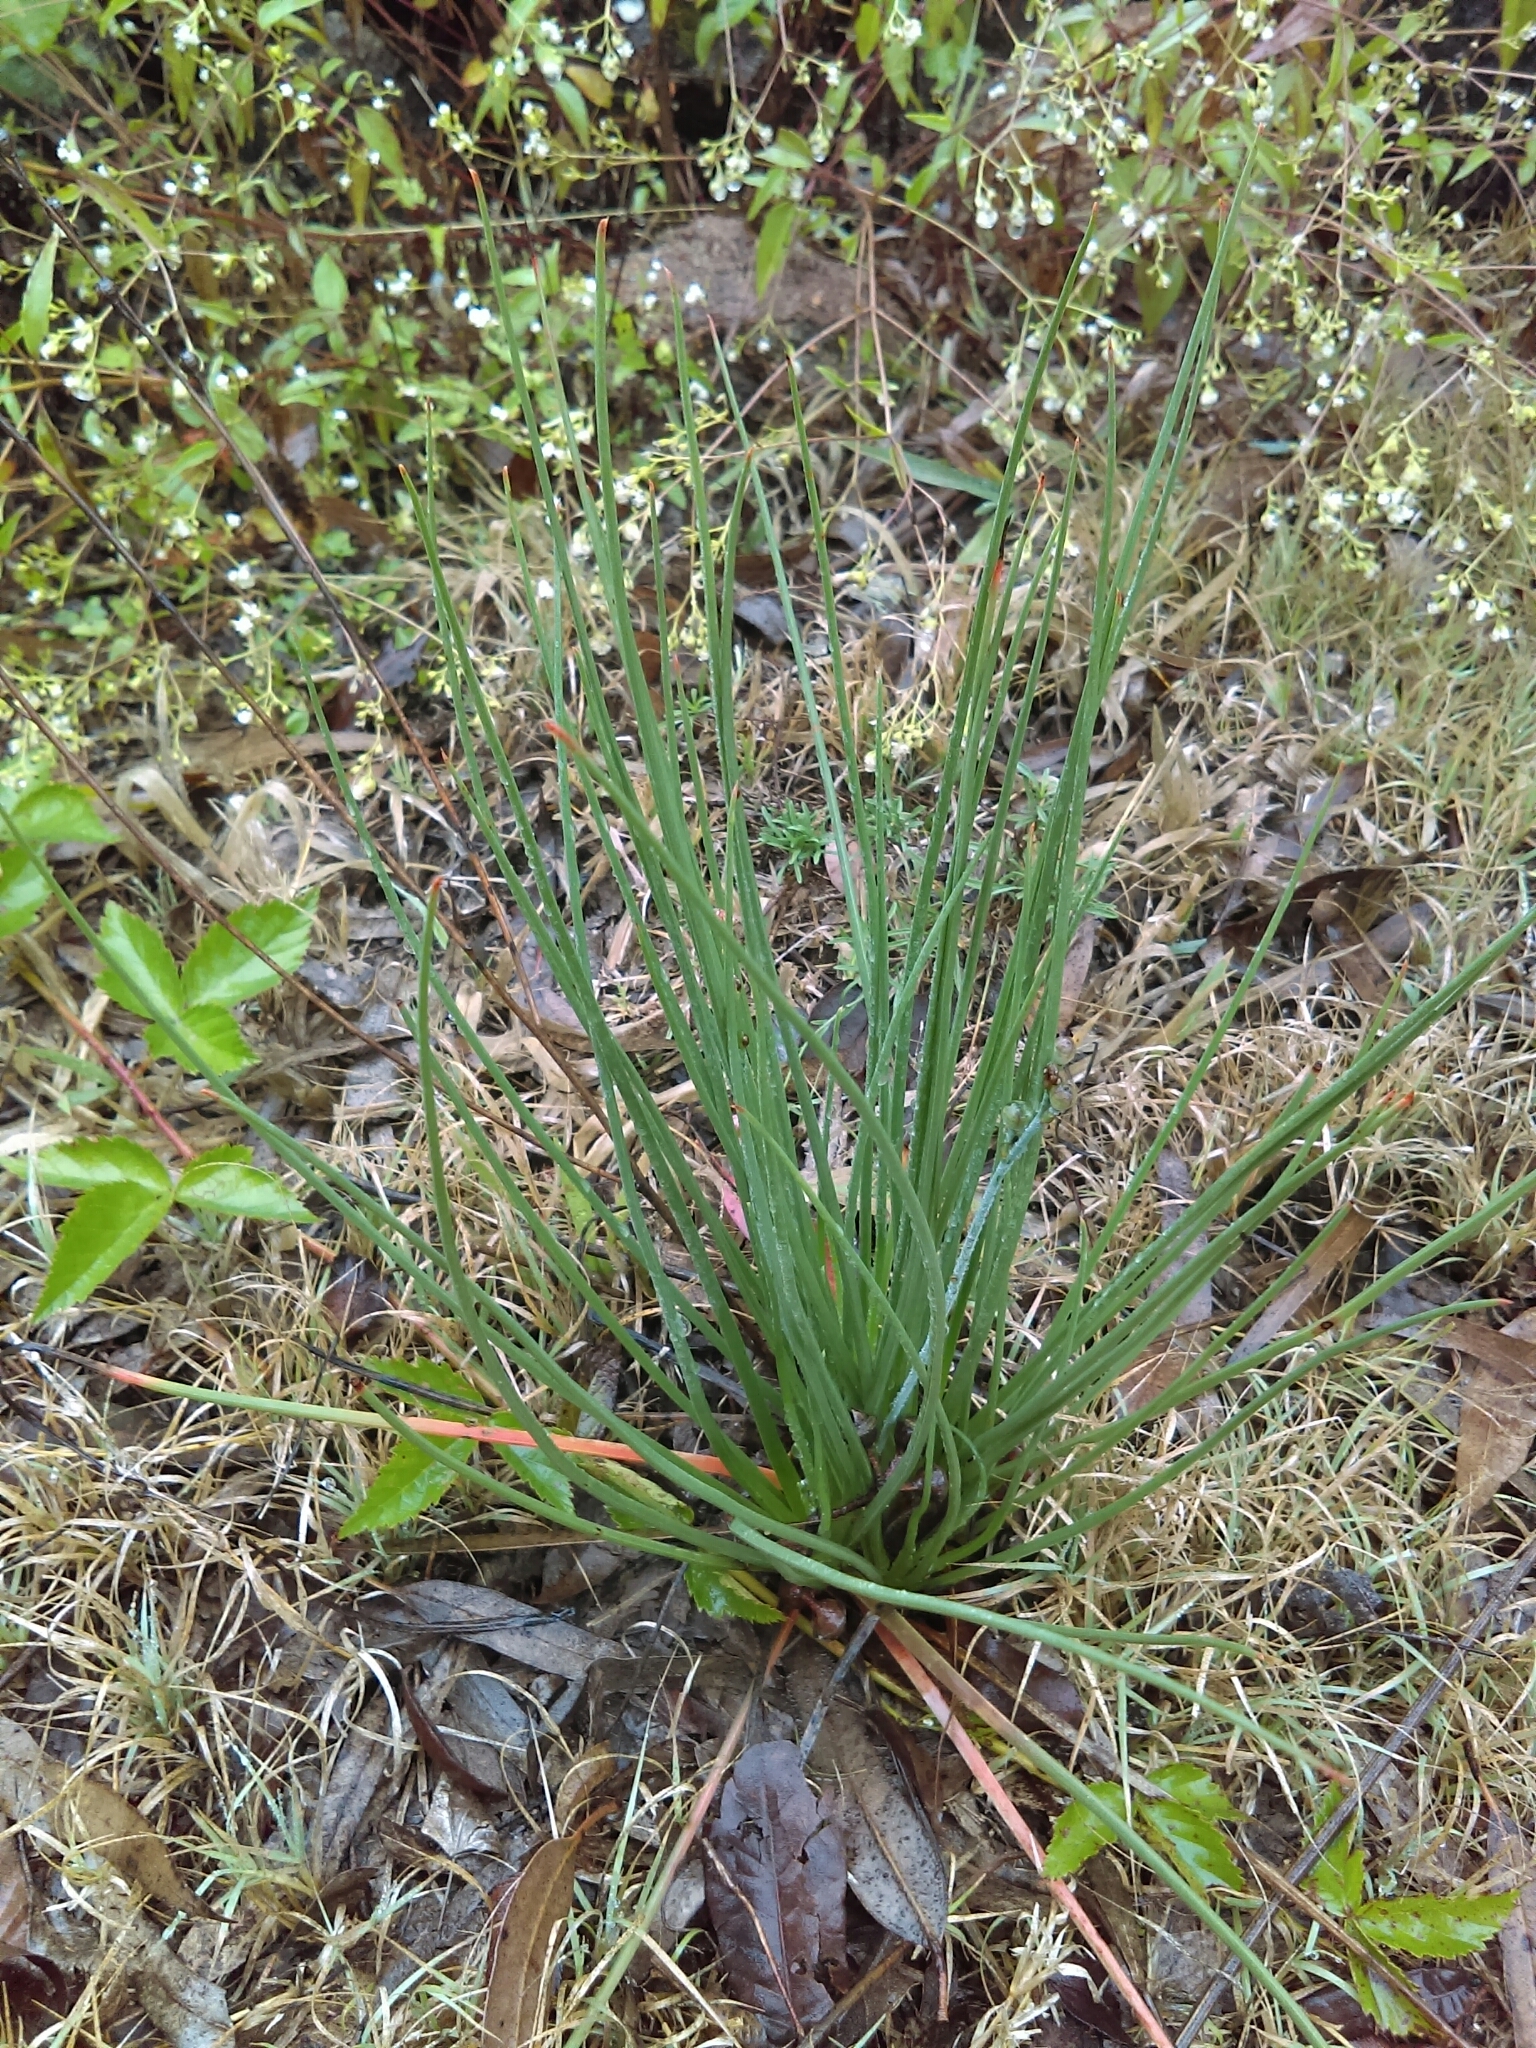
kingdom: Plantae
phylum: Tracheophyta
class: Liliopsida
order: Asparagales
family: Asphodelaceae
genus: Asphodelus
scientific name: Asphodelus fistulosus
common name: Onionweed
